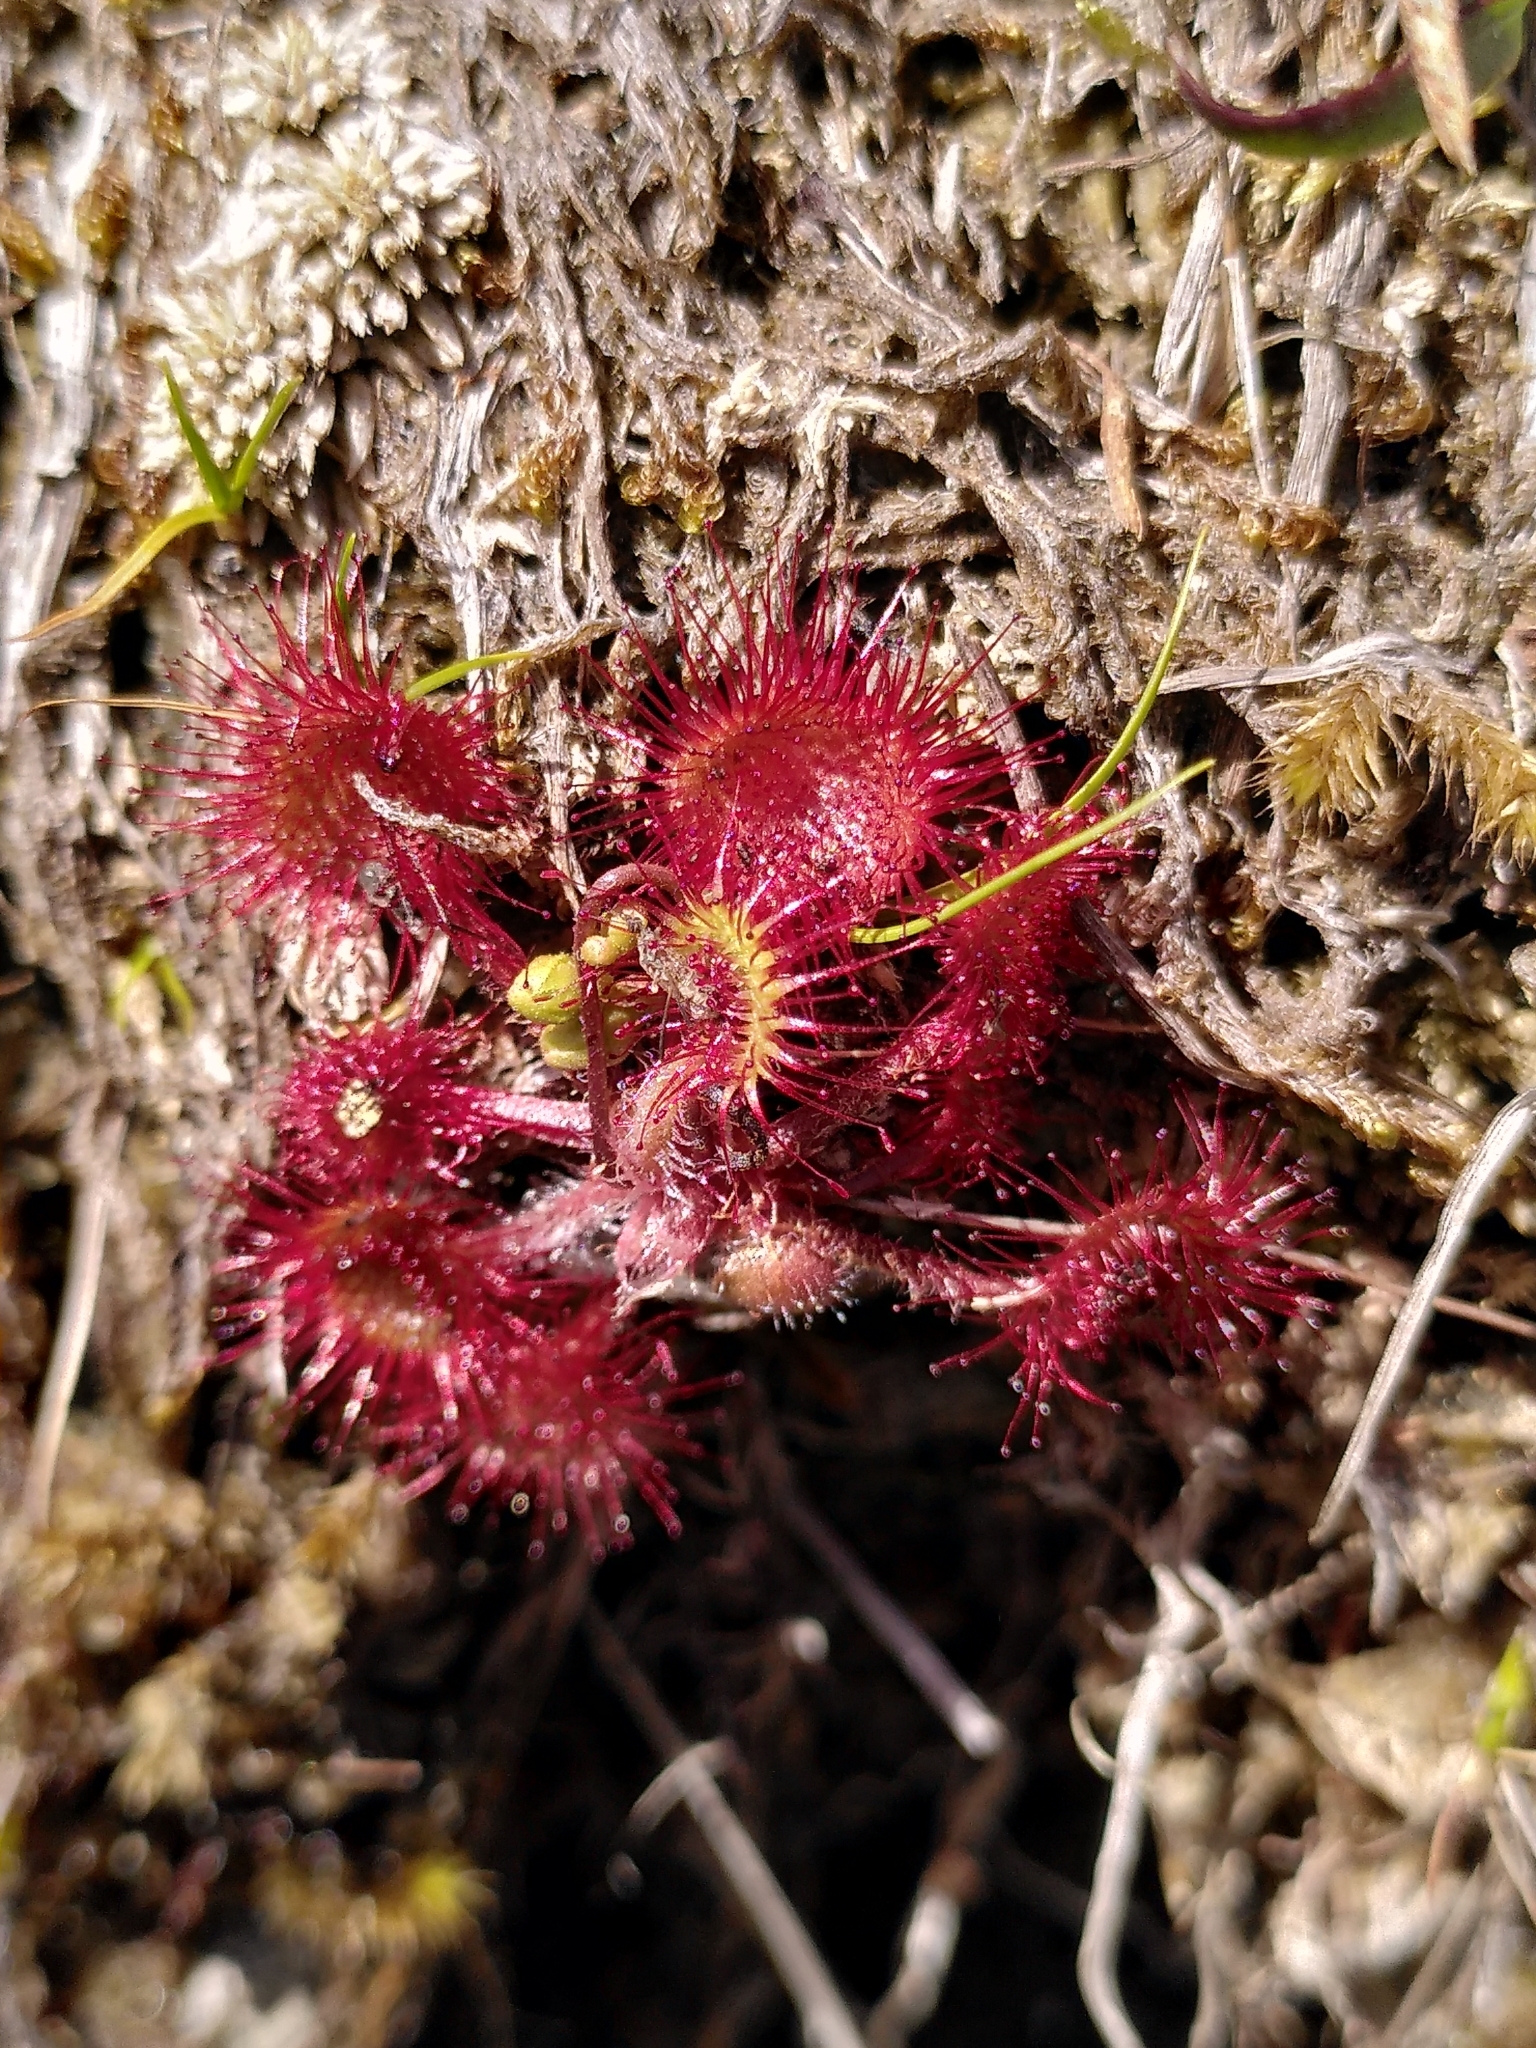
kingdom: Plantae
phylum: Tracheophyta
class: Magnoliopsida
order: Caryophyllales
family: Droseraceae
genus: Drosera
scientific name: Drosera rotundifolia
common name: Round-leaved sundew
